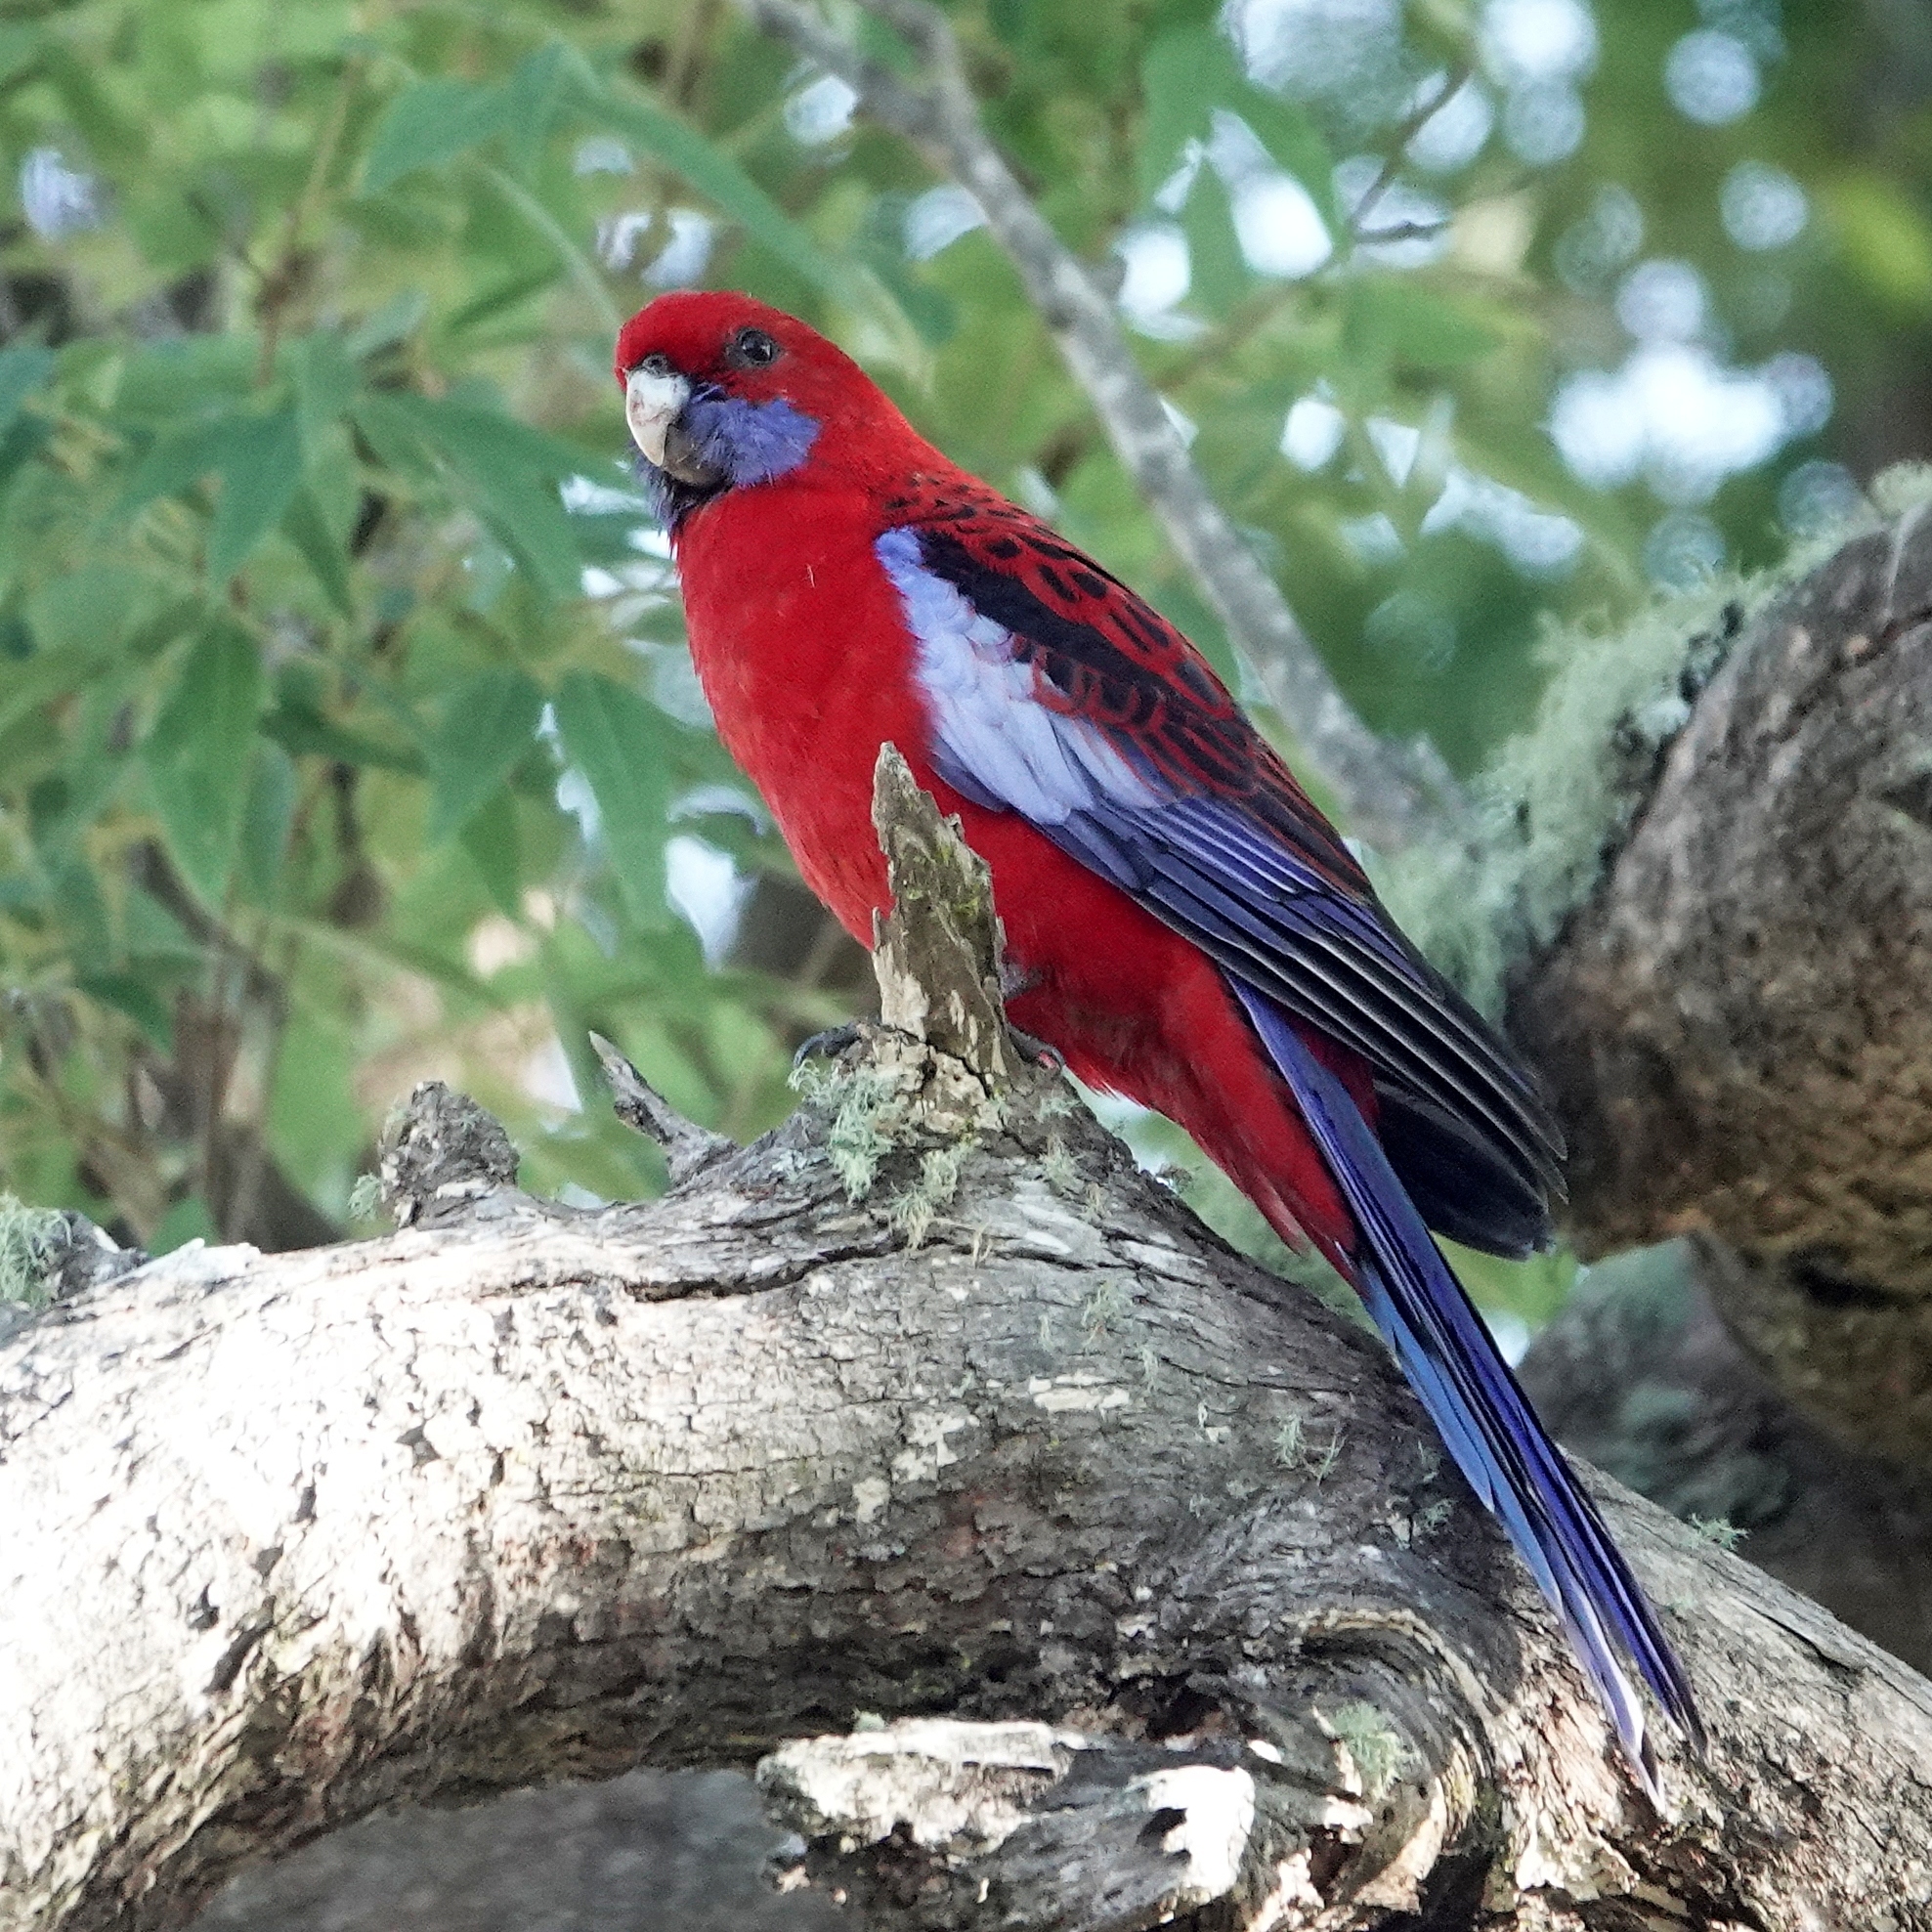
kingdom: Animalia
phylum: Chordata
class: Aves
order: Psittaciformes
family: Psittacidae
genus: Platycercus
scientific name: Platycercus elegans
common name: Crimson rosella
